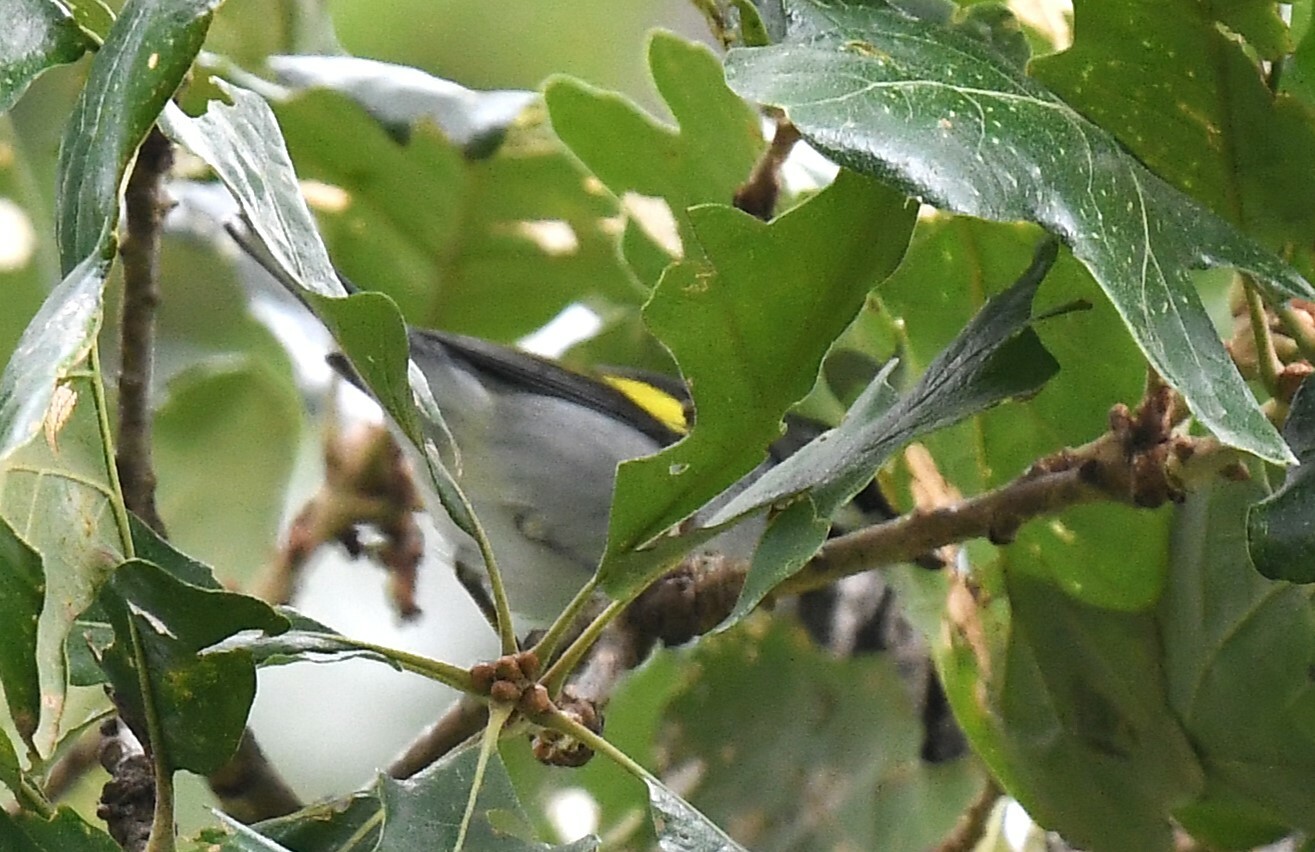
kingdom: Animalia
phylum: Chordata
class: Aves
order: Passeriformes
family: Parulidae
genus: Vermivora
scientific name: Vermivora chrysoptera
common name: Golden-winged warbler
